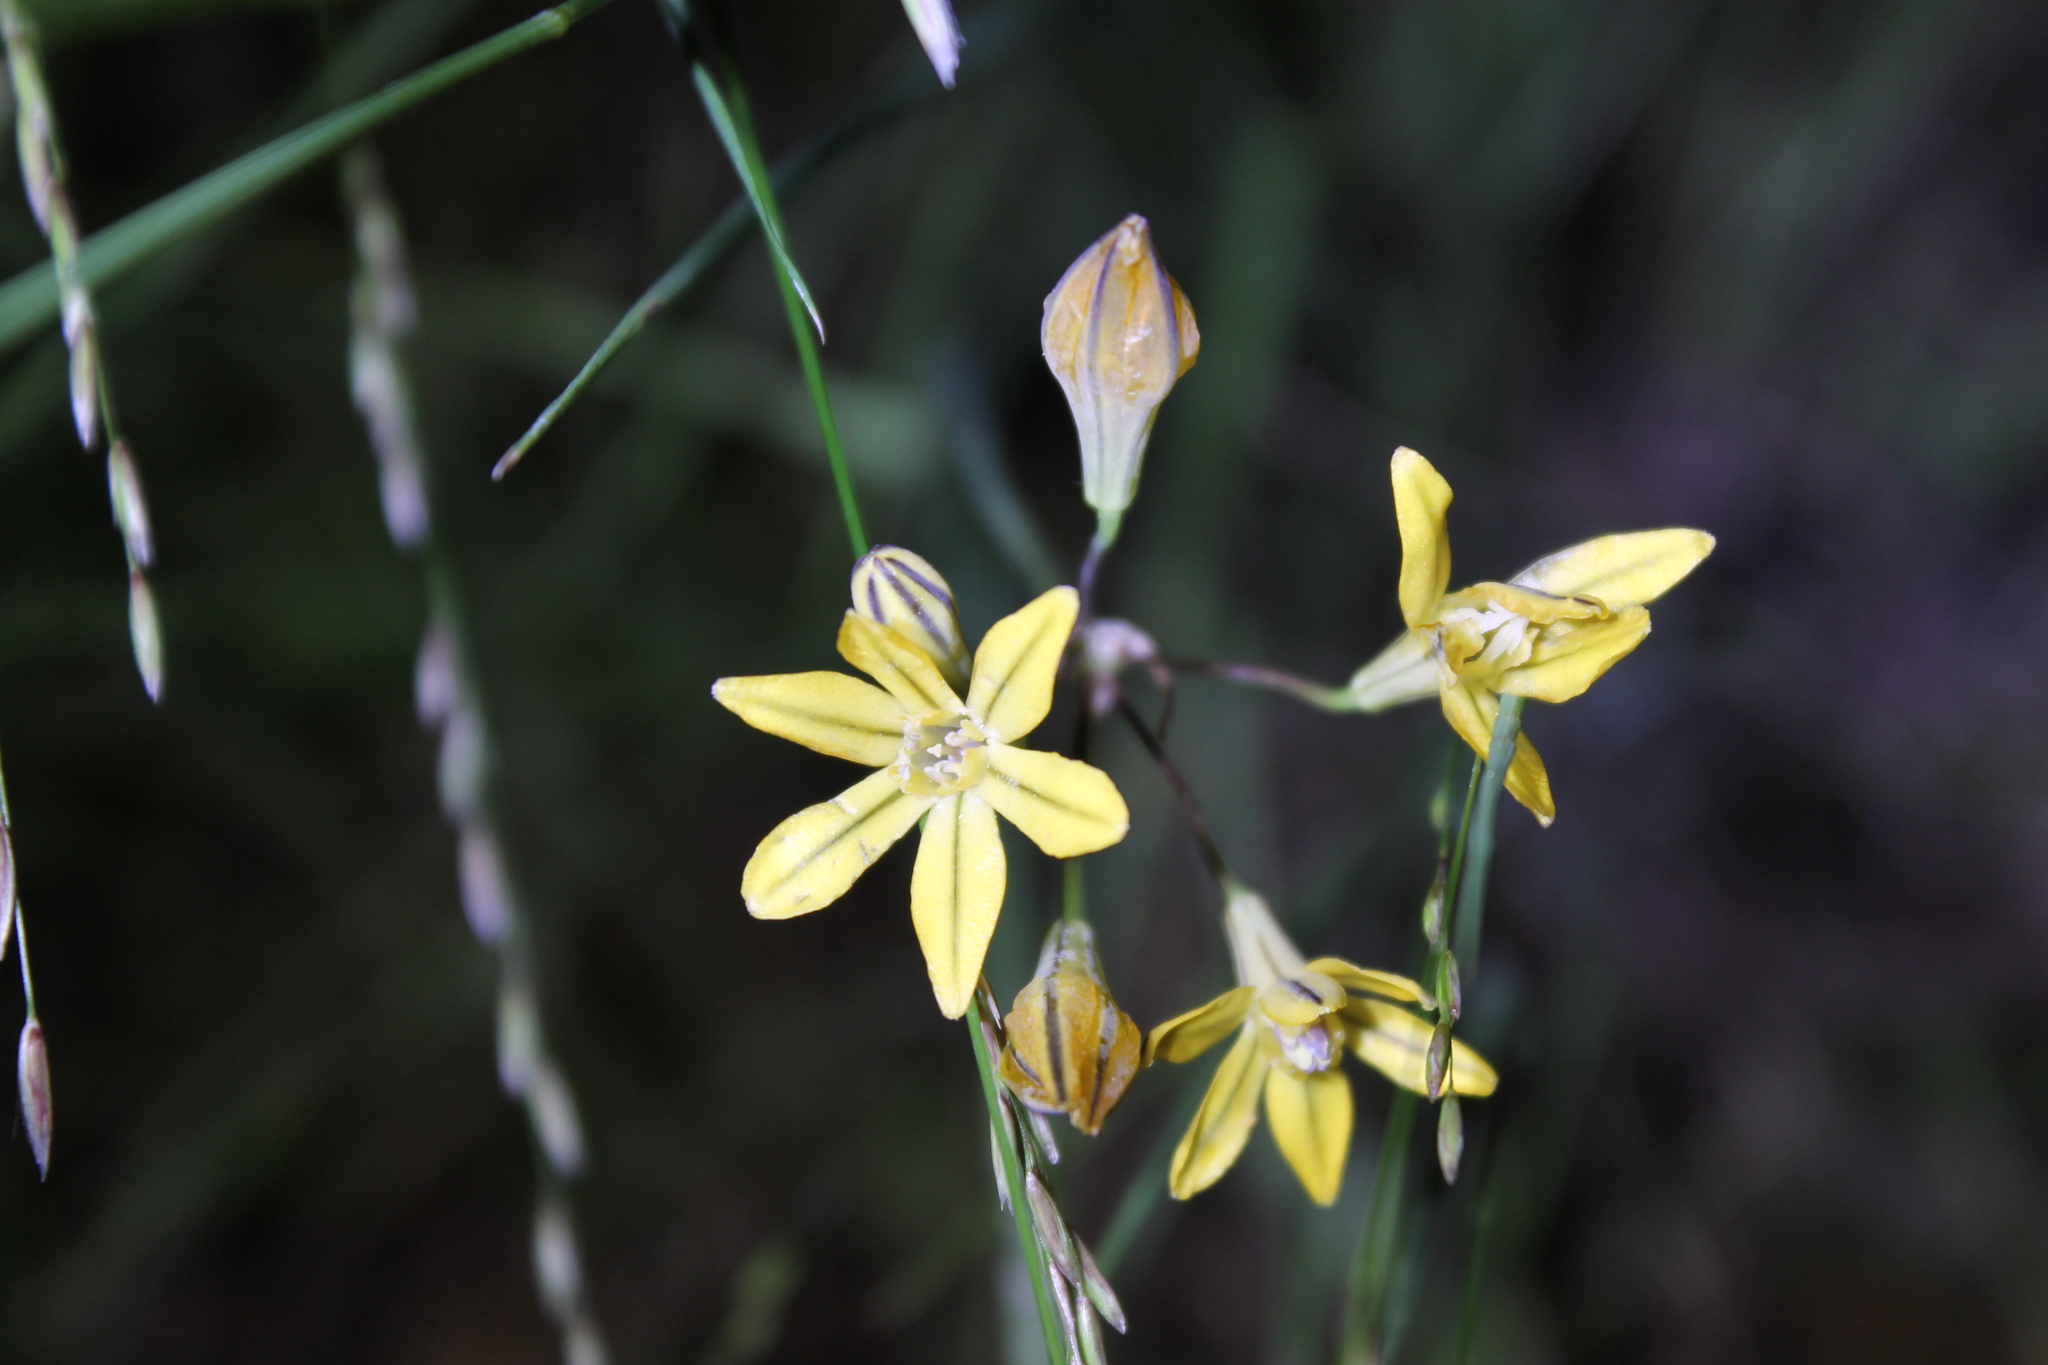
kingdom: Plantae
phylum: Tracheophyta
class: Liliopsida
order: Asparagales
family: Asparagaceae
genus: Triteleia
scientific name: Triteleia lugens
